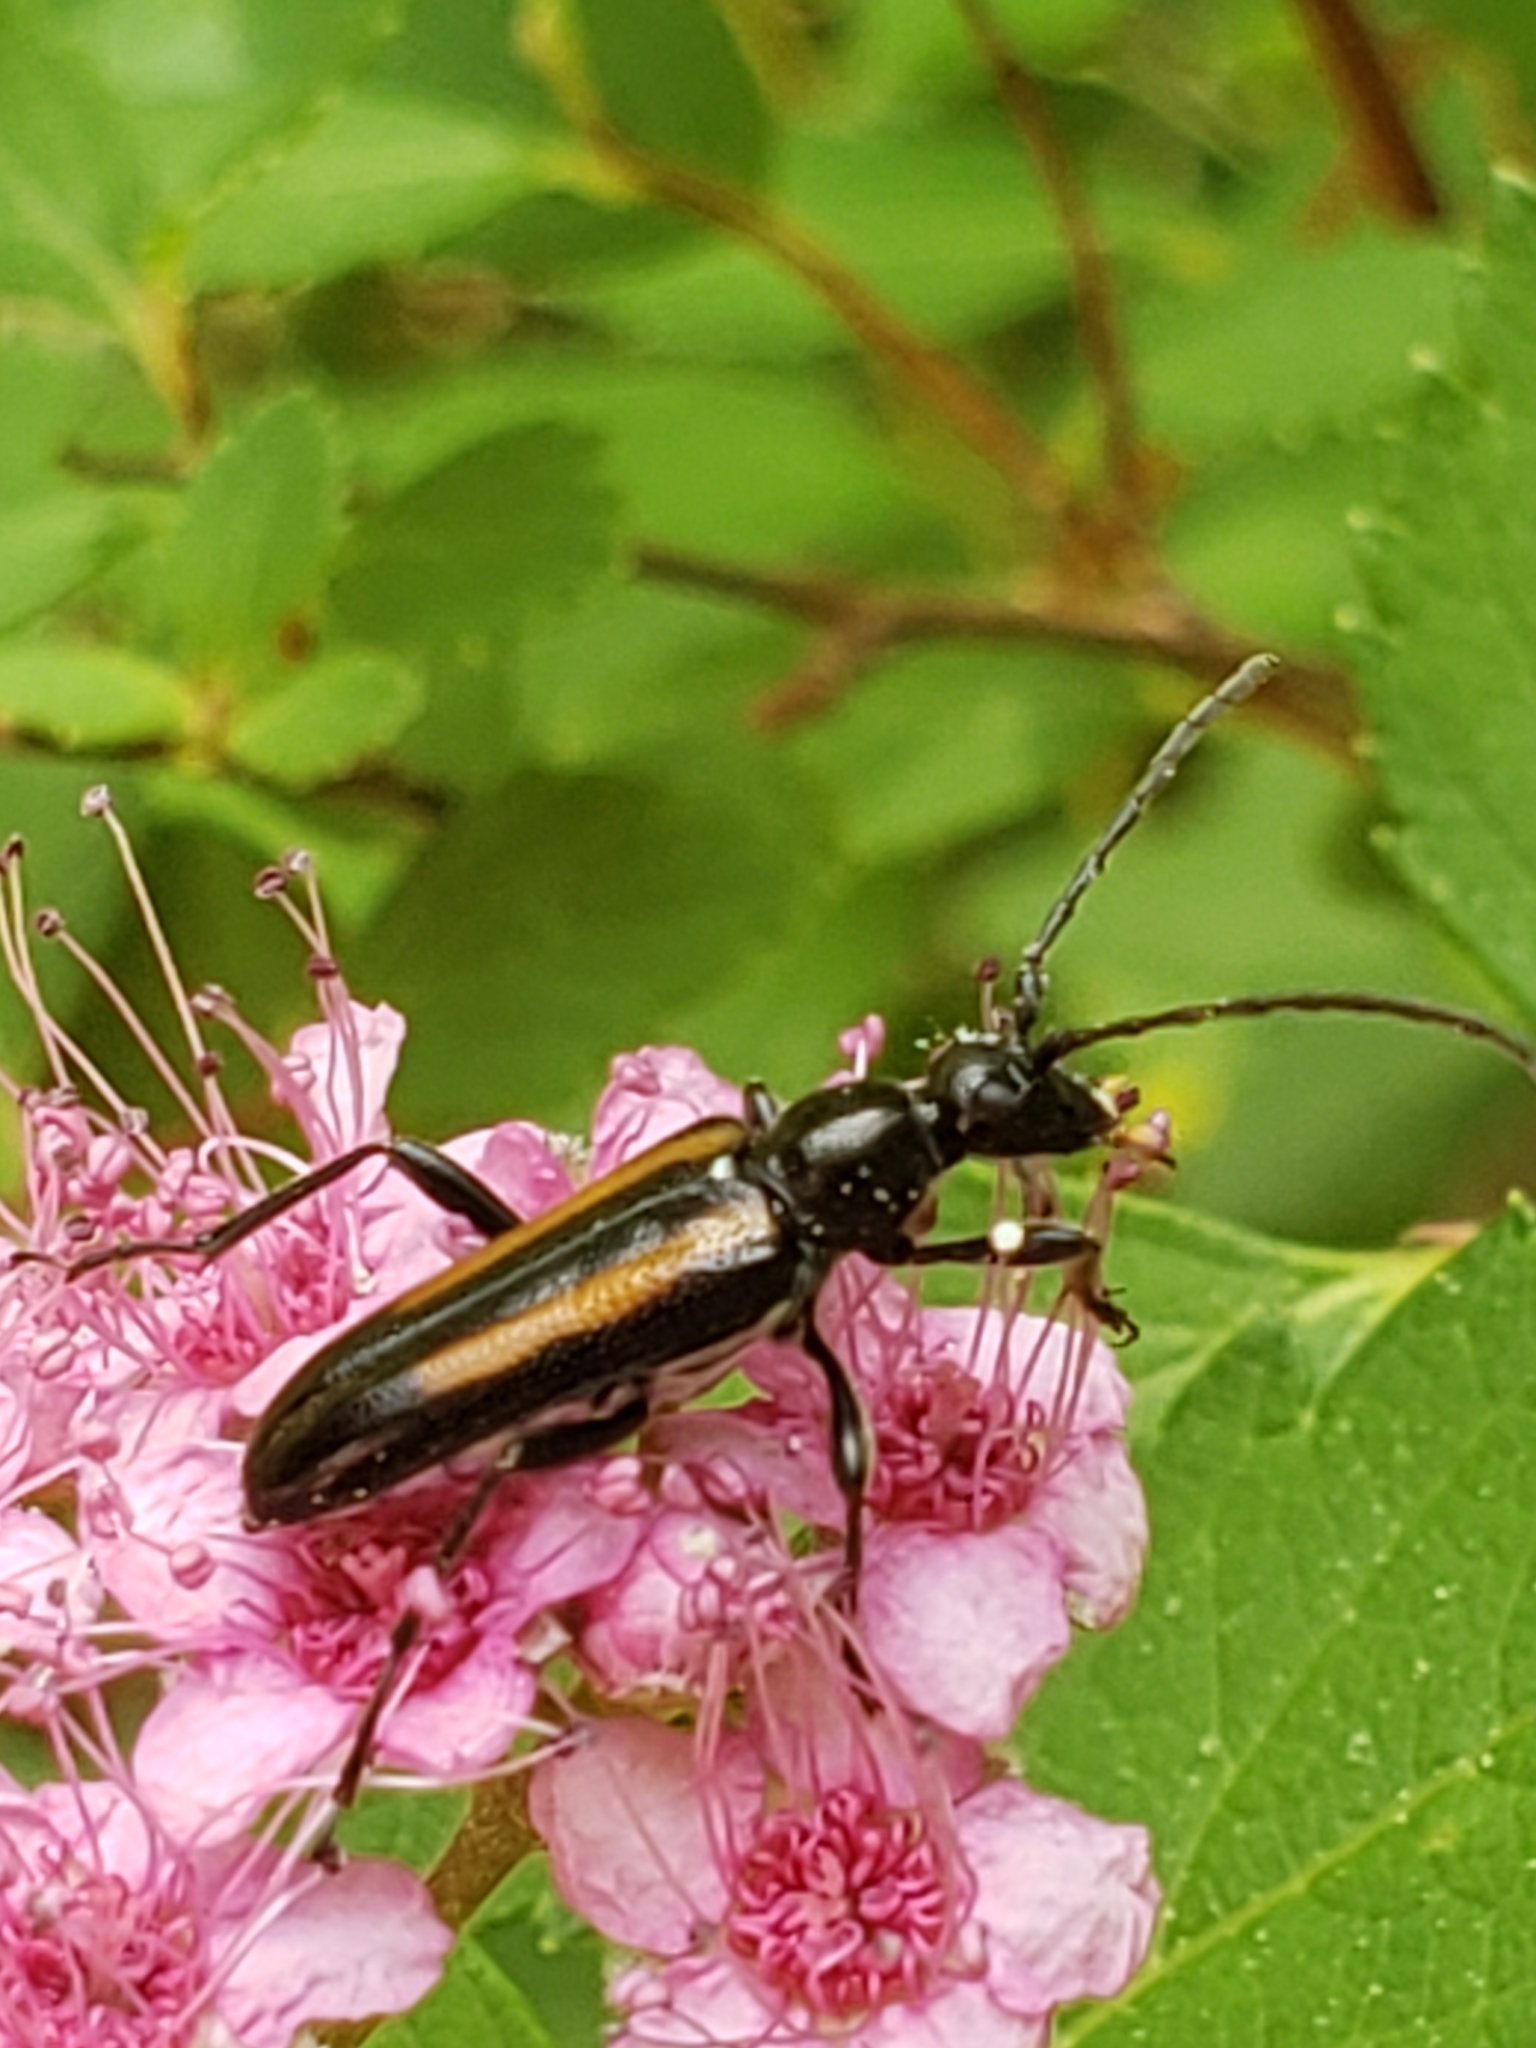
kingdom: Animalia
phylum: Arthropoda
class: Insecta
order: Coleoptera
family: Cerambycidae
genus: Strangalepta
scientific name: Strangalepta abbreviata
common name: Strangalepta flower longhorn beetle
